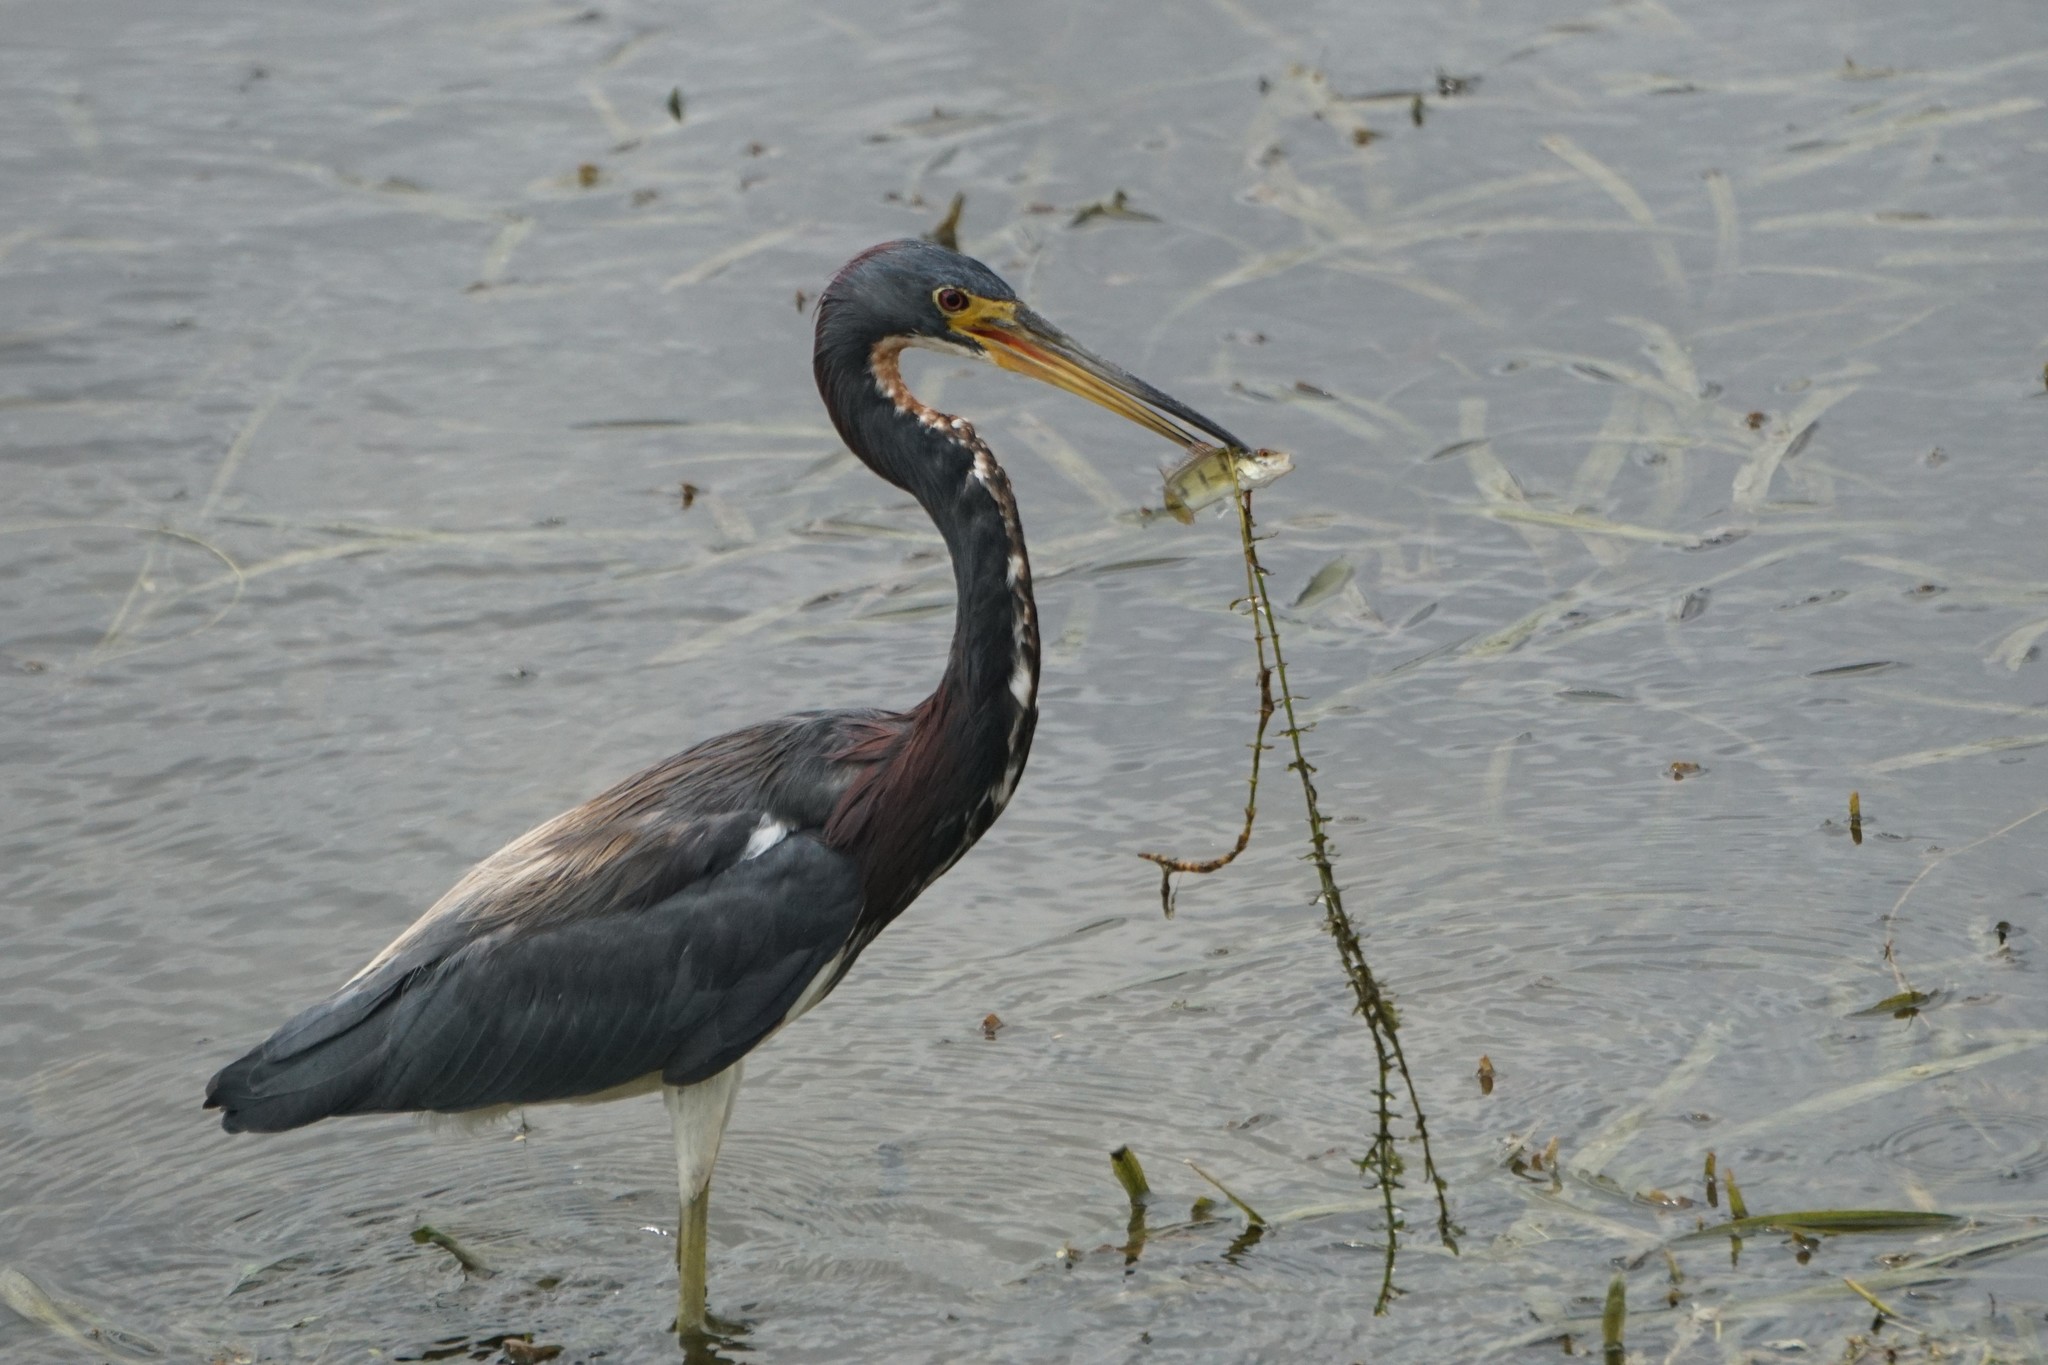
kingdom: Animalia
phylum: Chordata
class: Aves
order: Pelecaniformes
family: Ardeidae
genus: Egretta
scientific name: Egretta tricolor
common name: Tricolored heron
